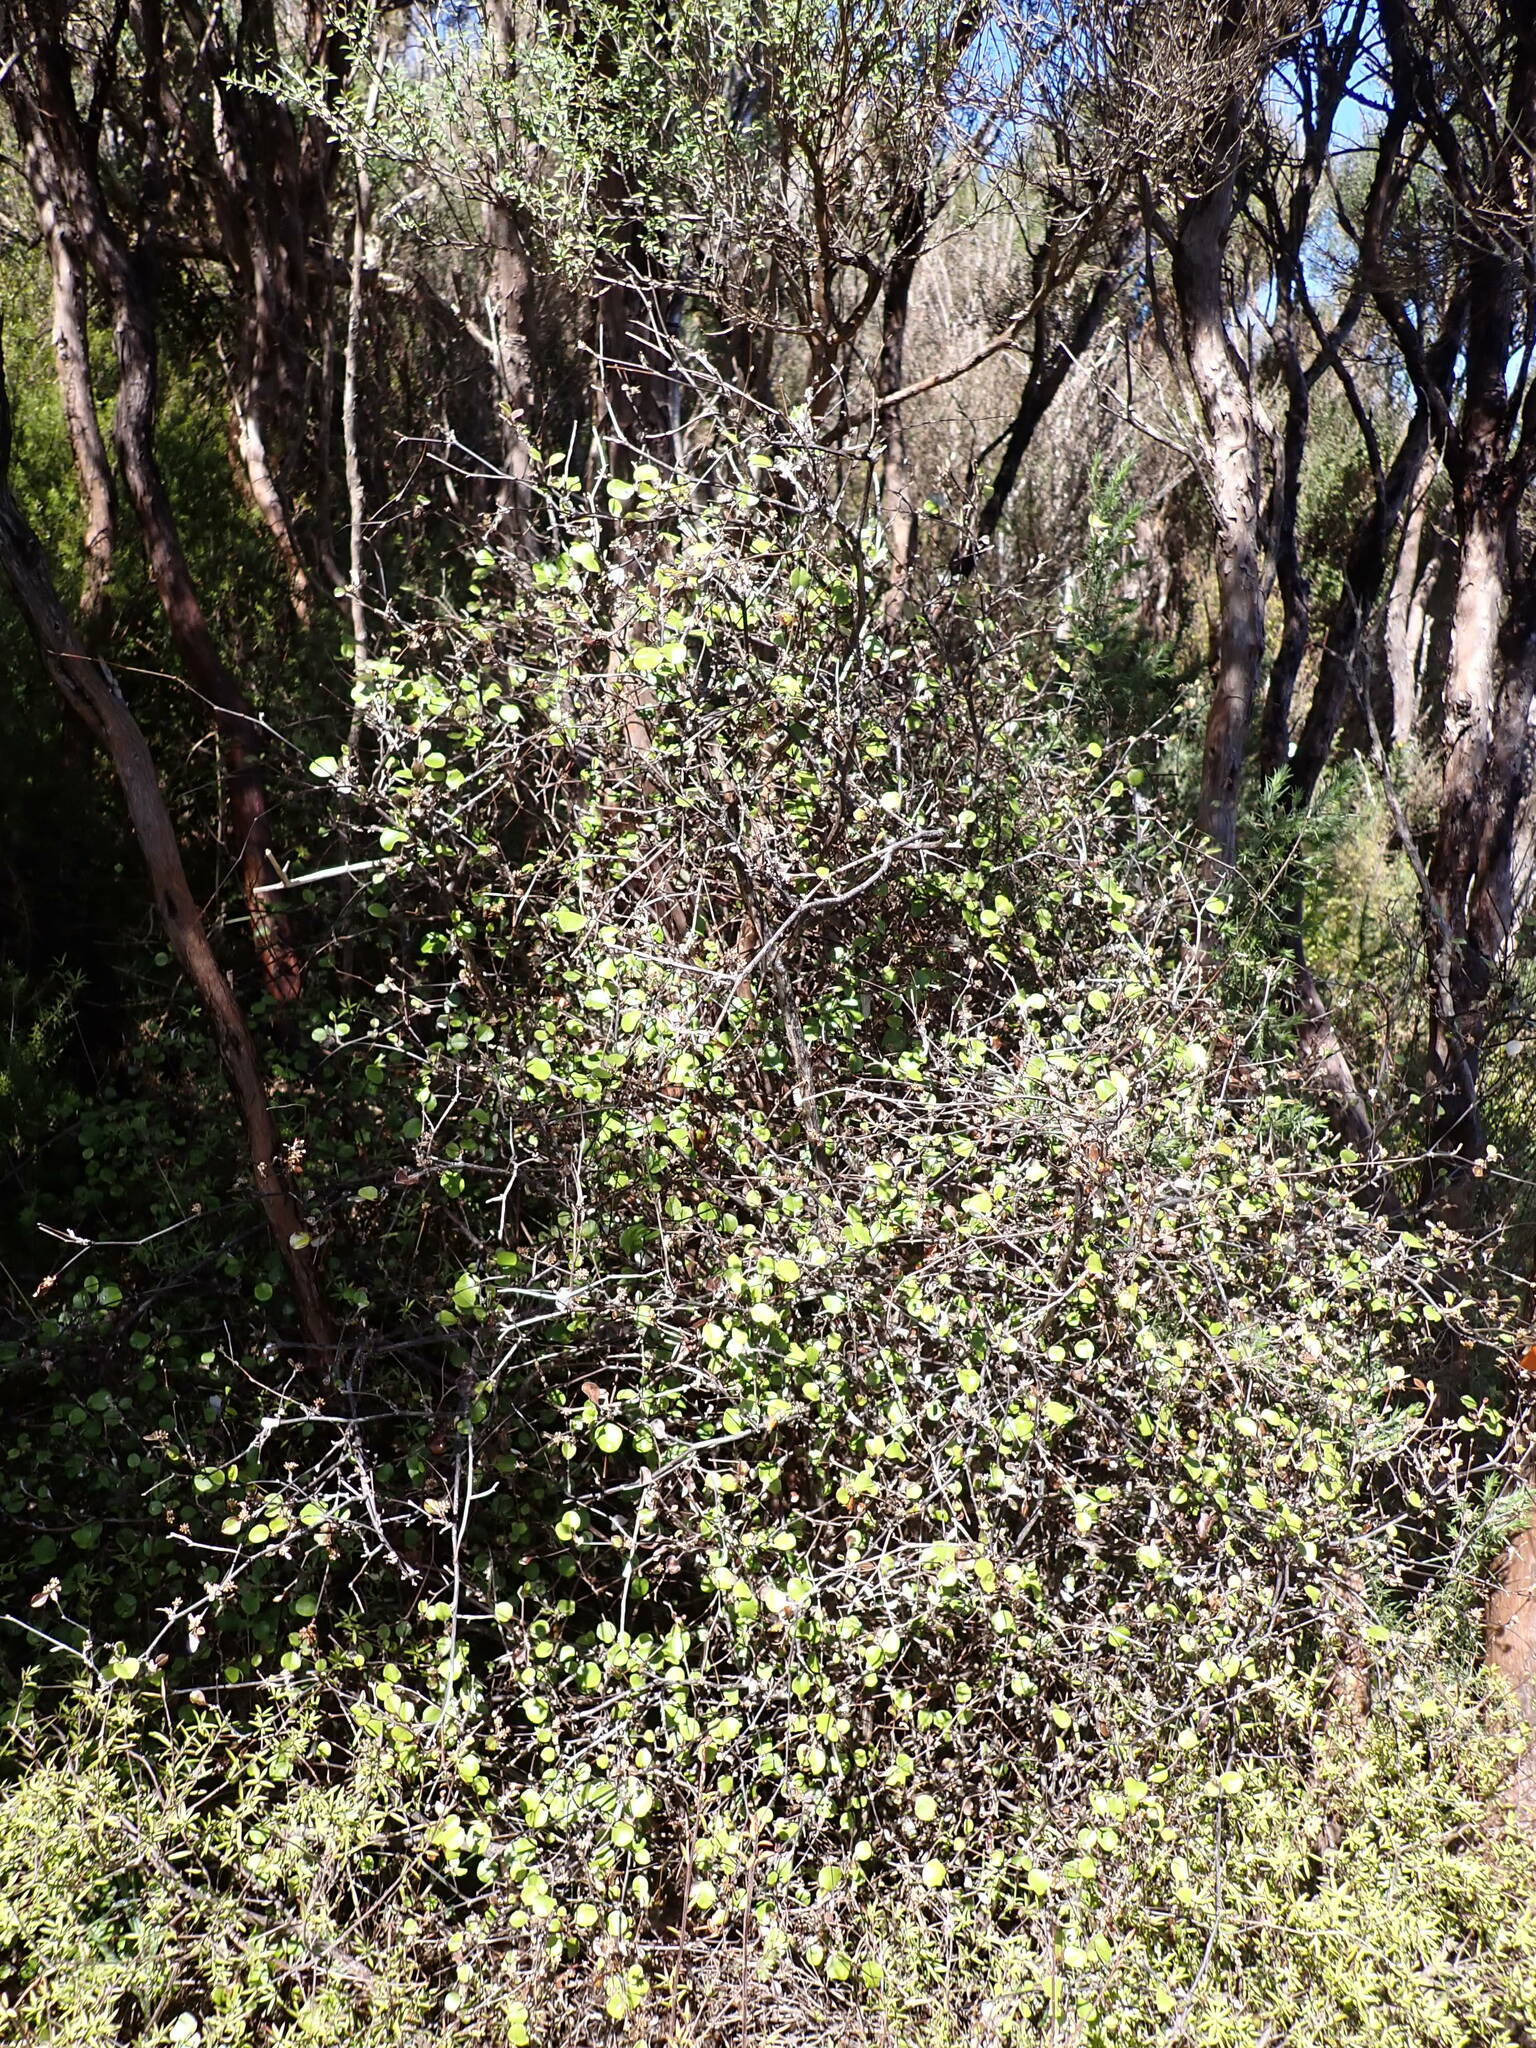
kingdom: Plantae
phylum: Tracheophyta
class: Magnoliopsida
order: Asterales
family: Asteraceae
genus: Ozothamnus
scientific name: Ozothamnus glomeratus
